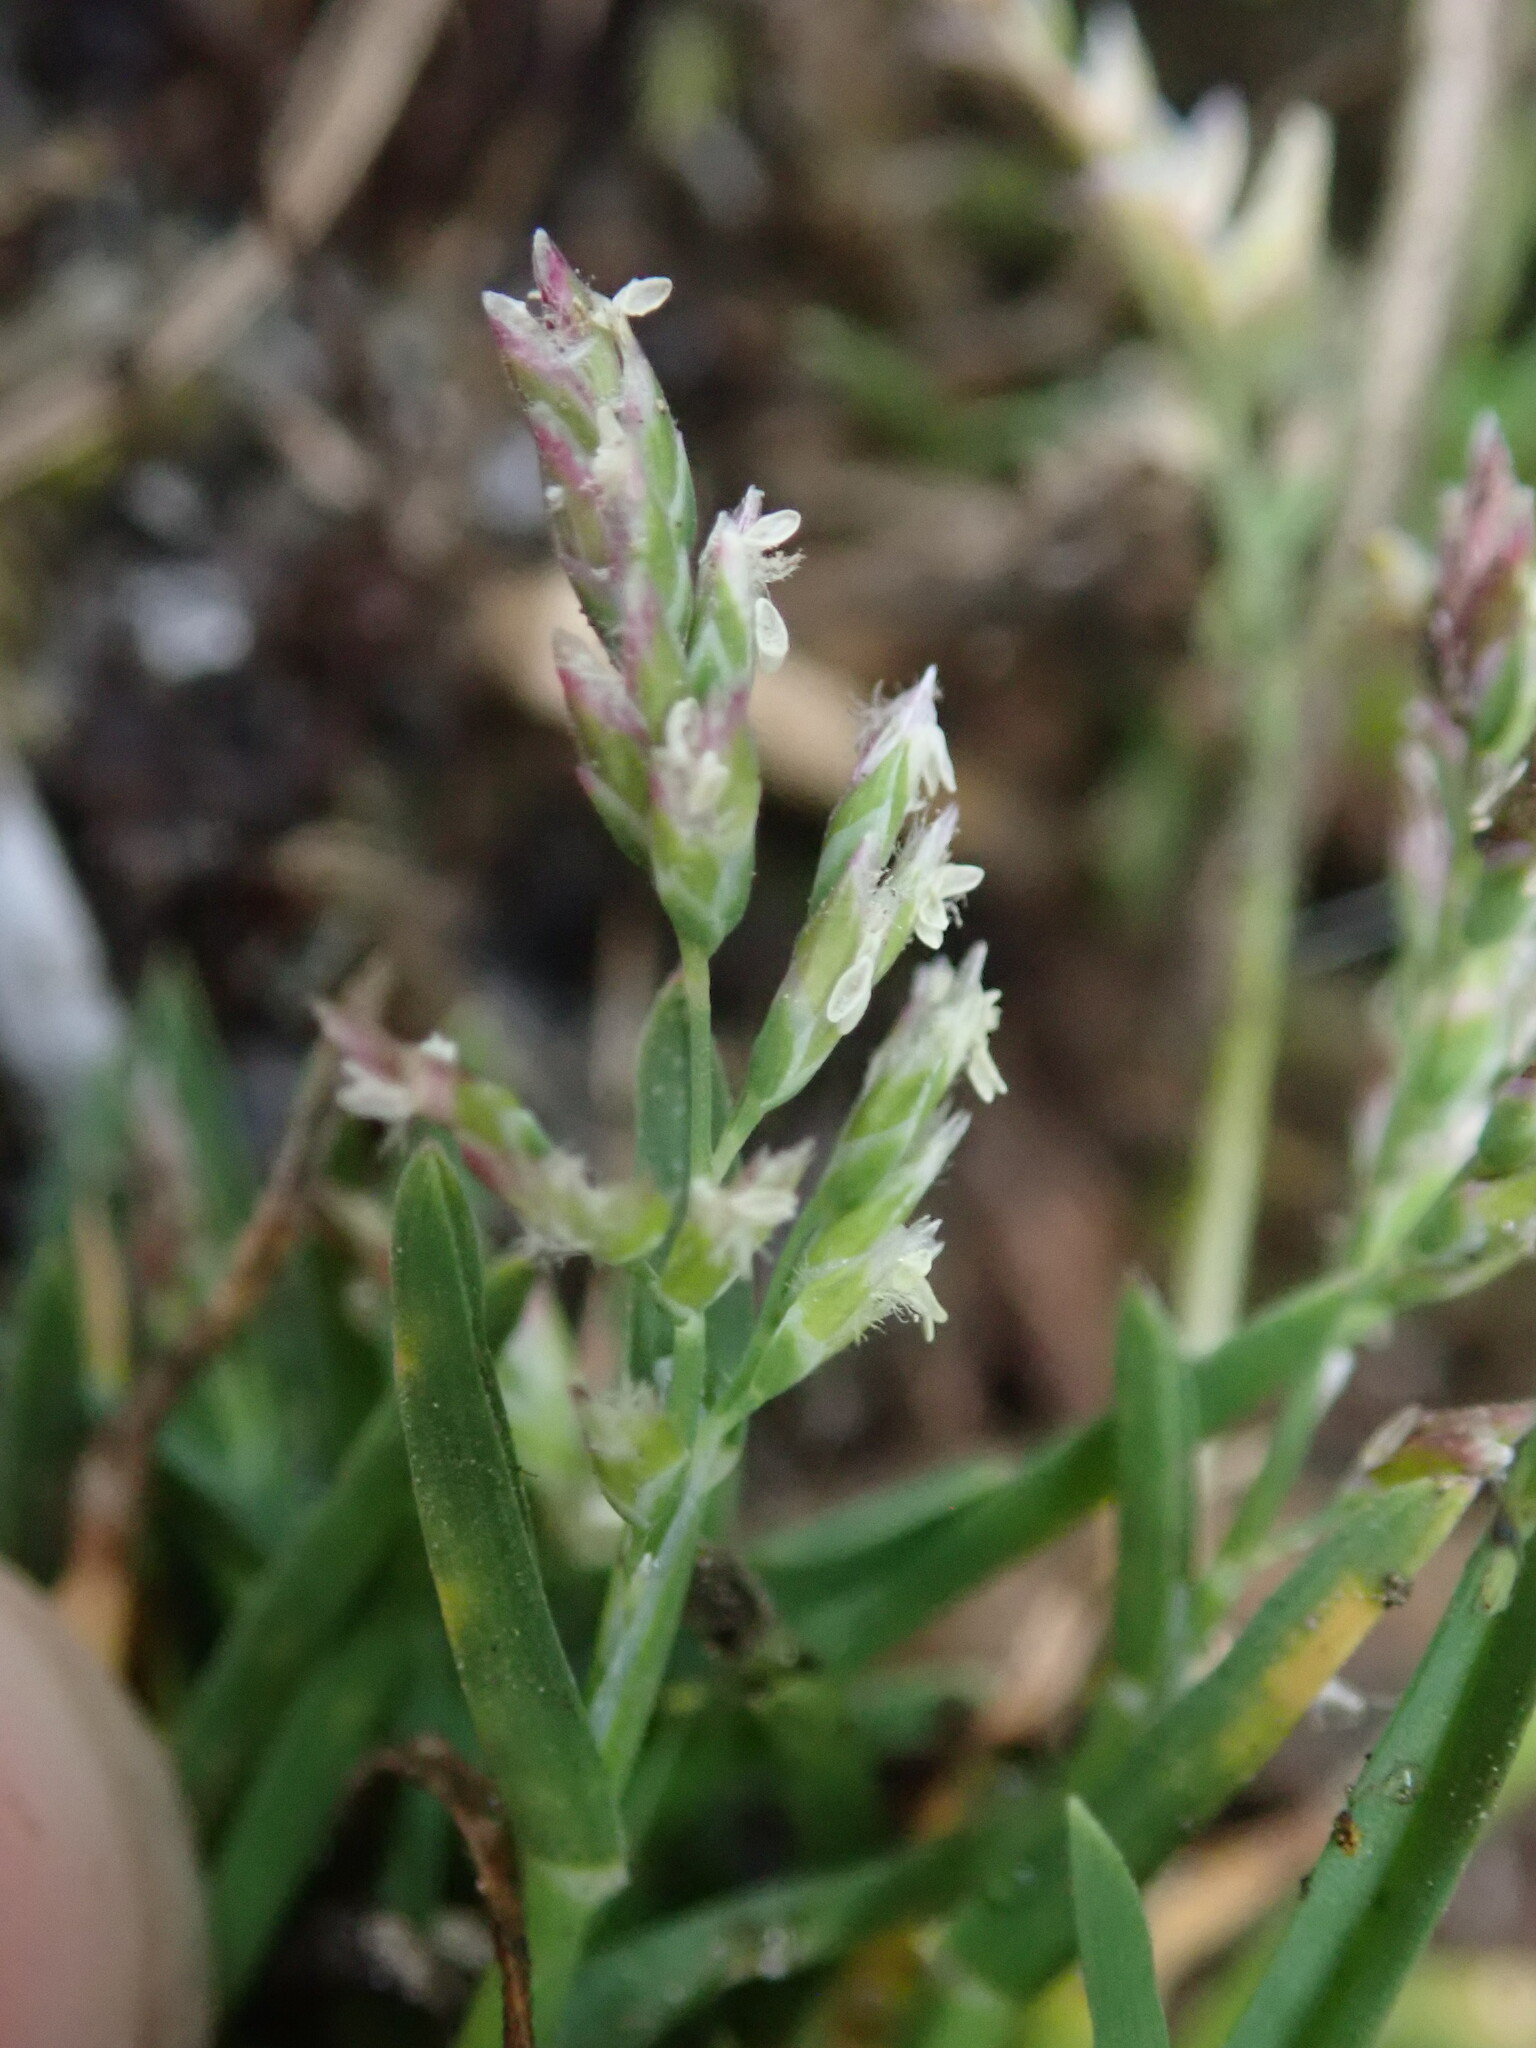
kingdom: Plantae
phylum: Tracheophyta
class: Liliopsida
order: Poales
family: Poaceae
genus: Poa
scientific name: Poa annua
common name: Annual bluegrass
